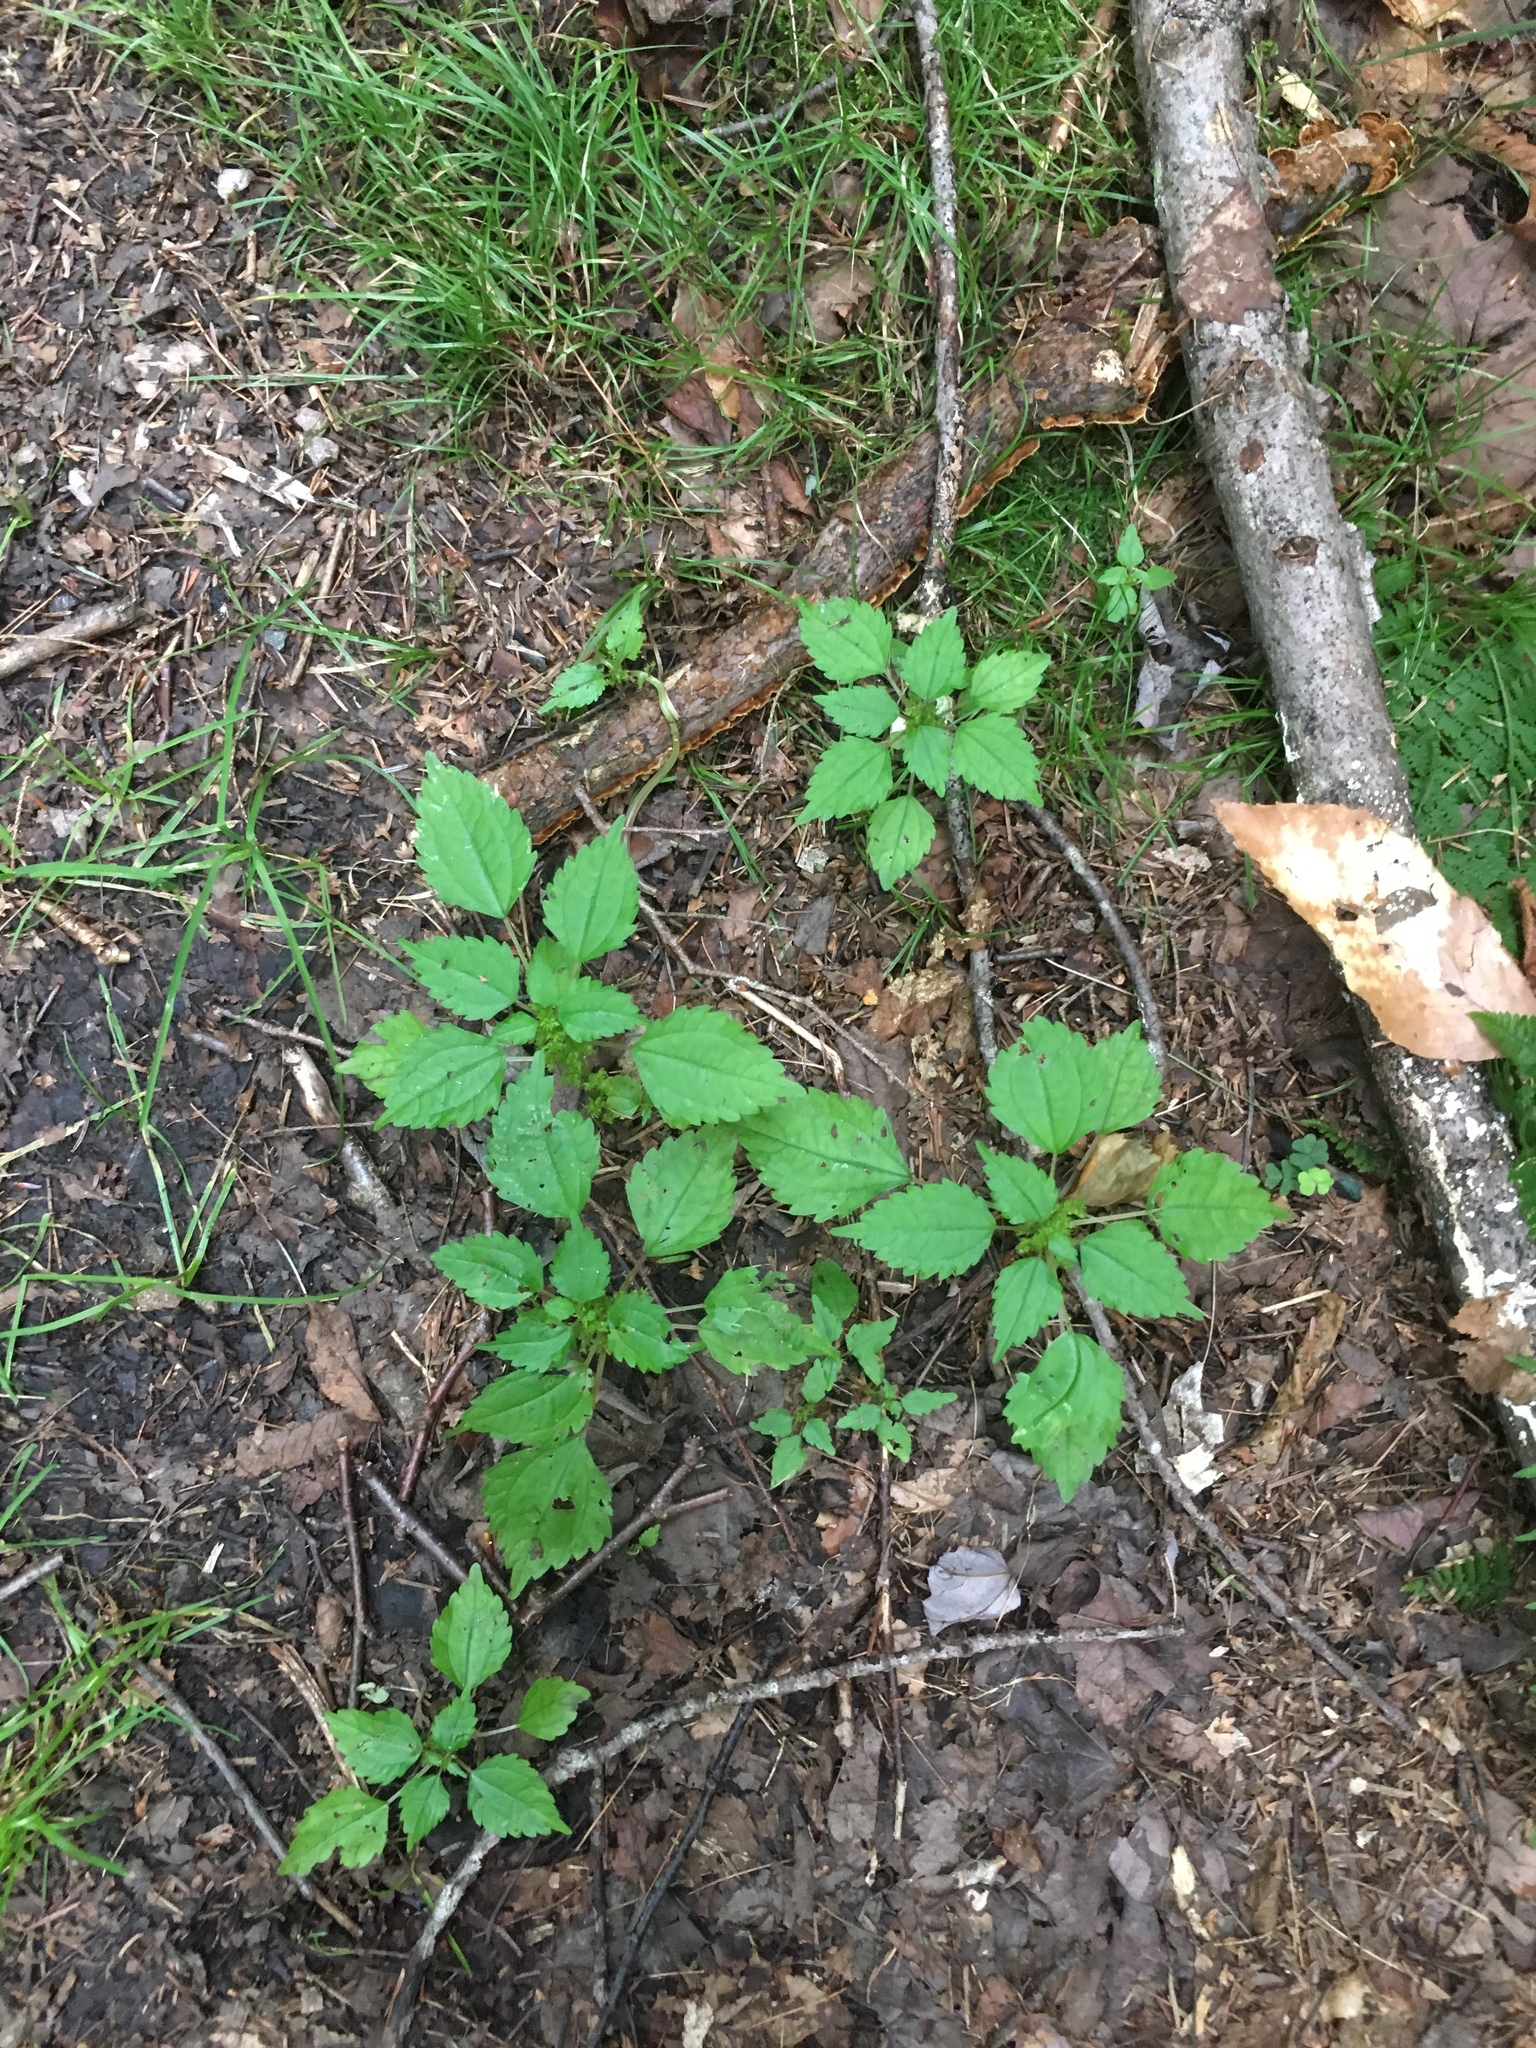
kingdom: Plantae
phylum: Tracheophyta
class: Magnoliopsida
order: Rosales
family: Urticaceae
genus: Pilea
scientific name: Pilea pumila
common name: Clearweed
